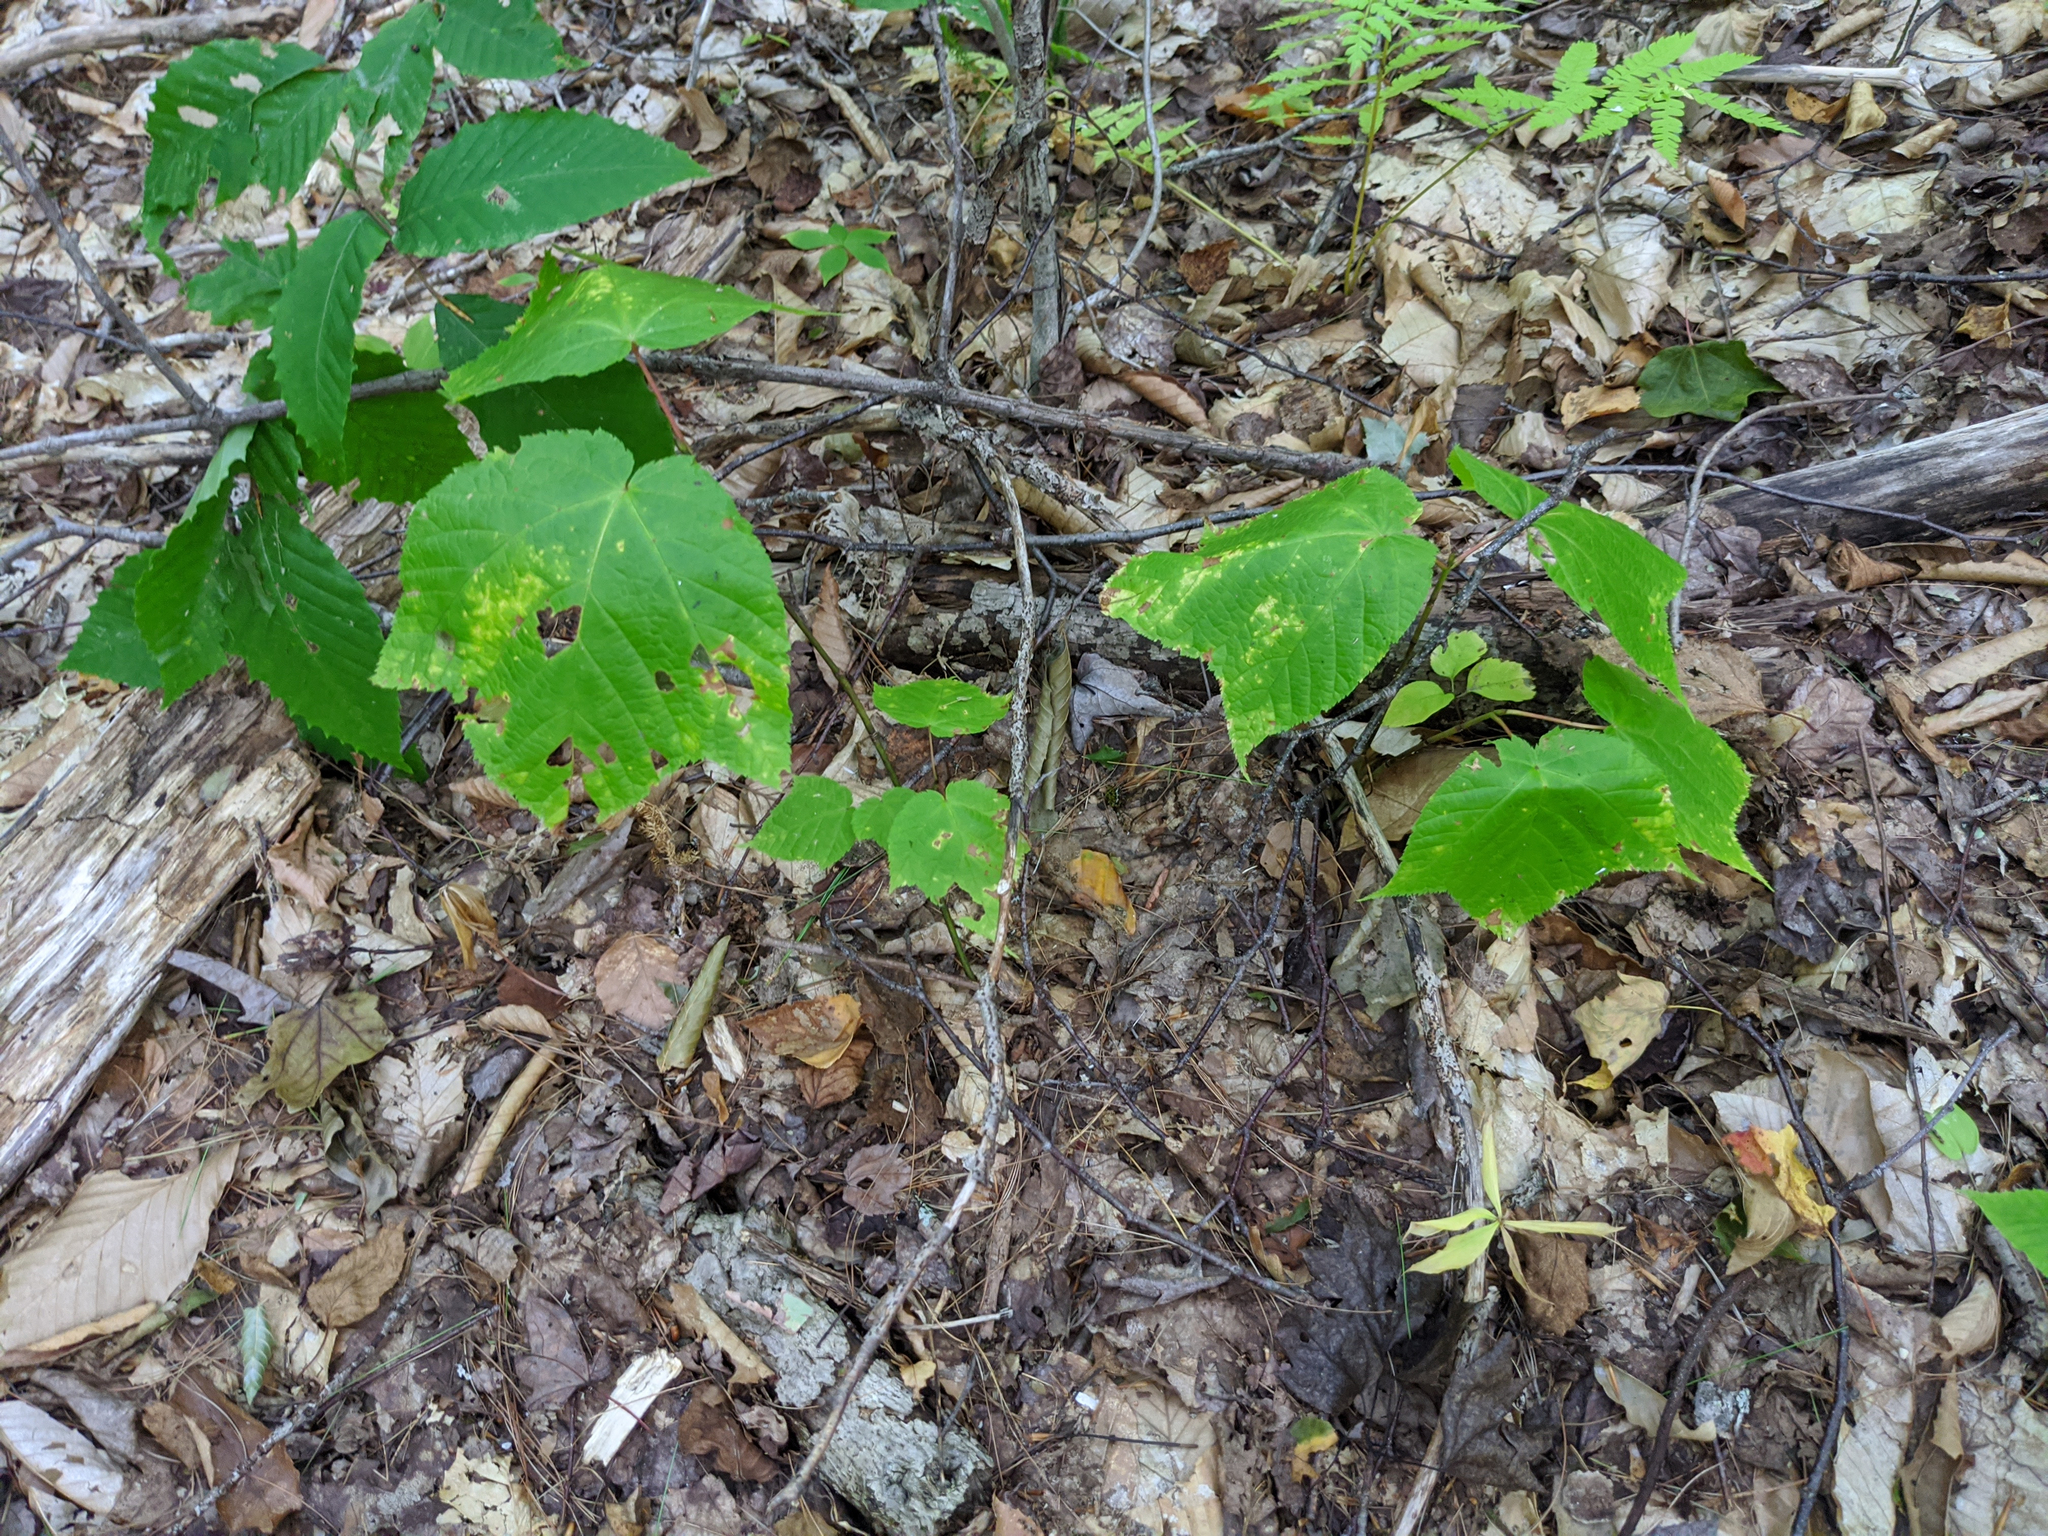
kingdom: Plantae
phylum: Tracheophyta
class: Magnoliopsida
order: Sapindales
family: Sapindaceae
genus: Acer
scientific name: Acer pensylvanicum
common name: Moosewood
